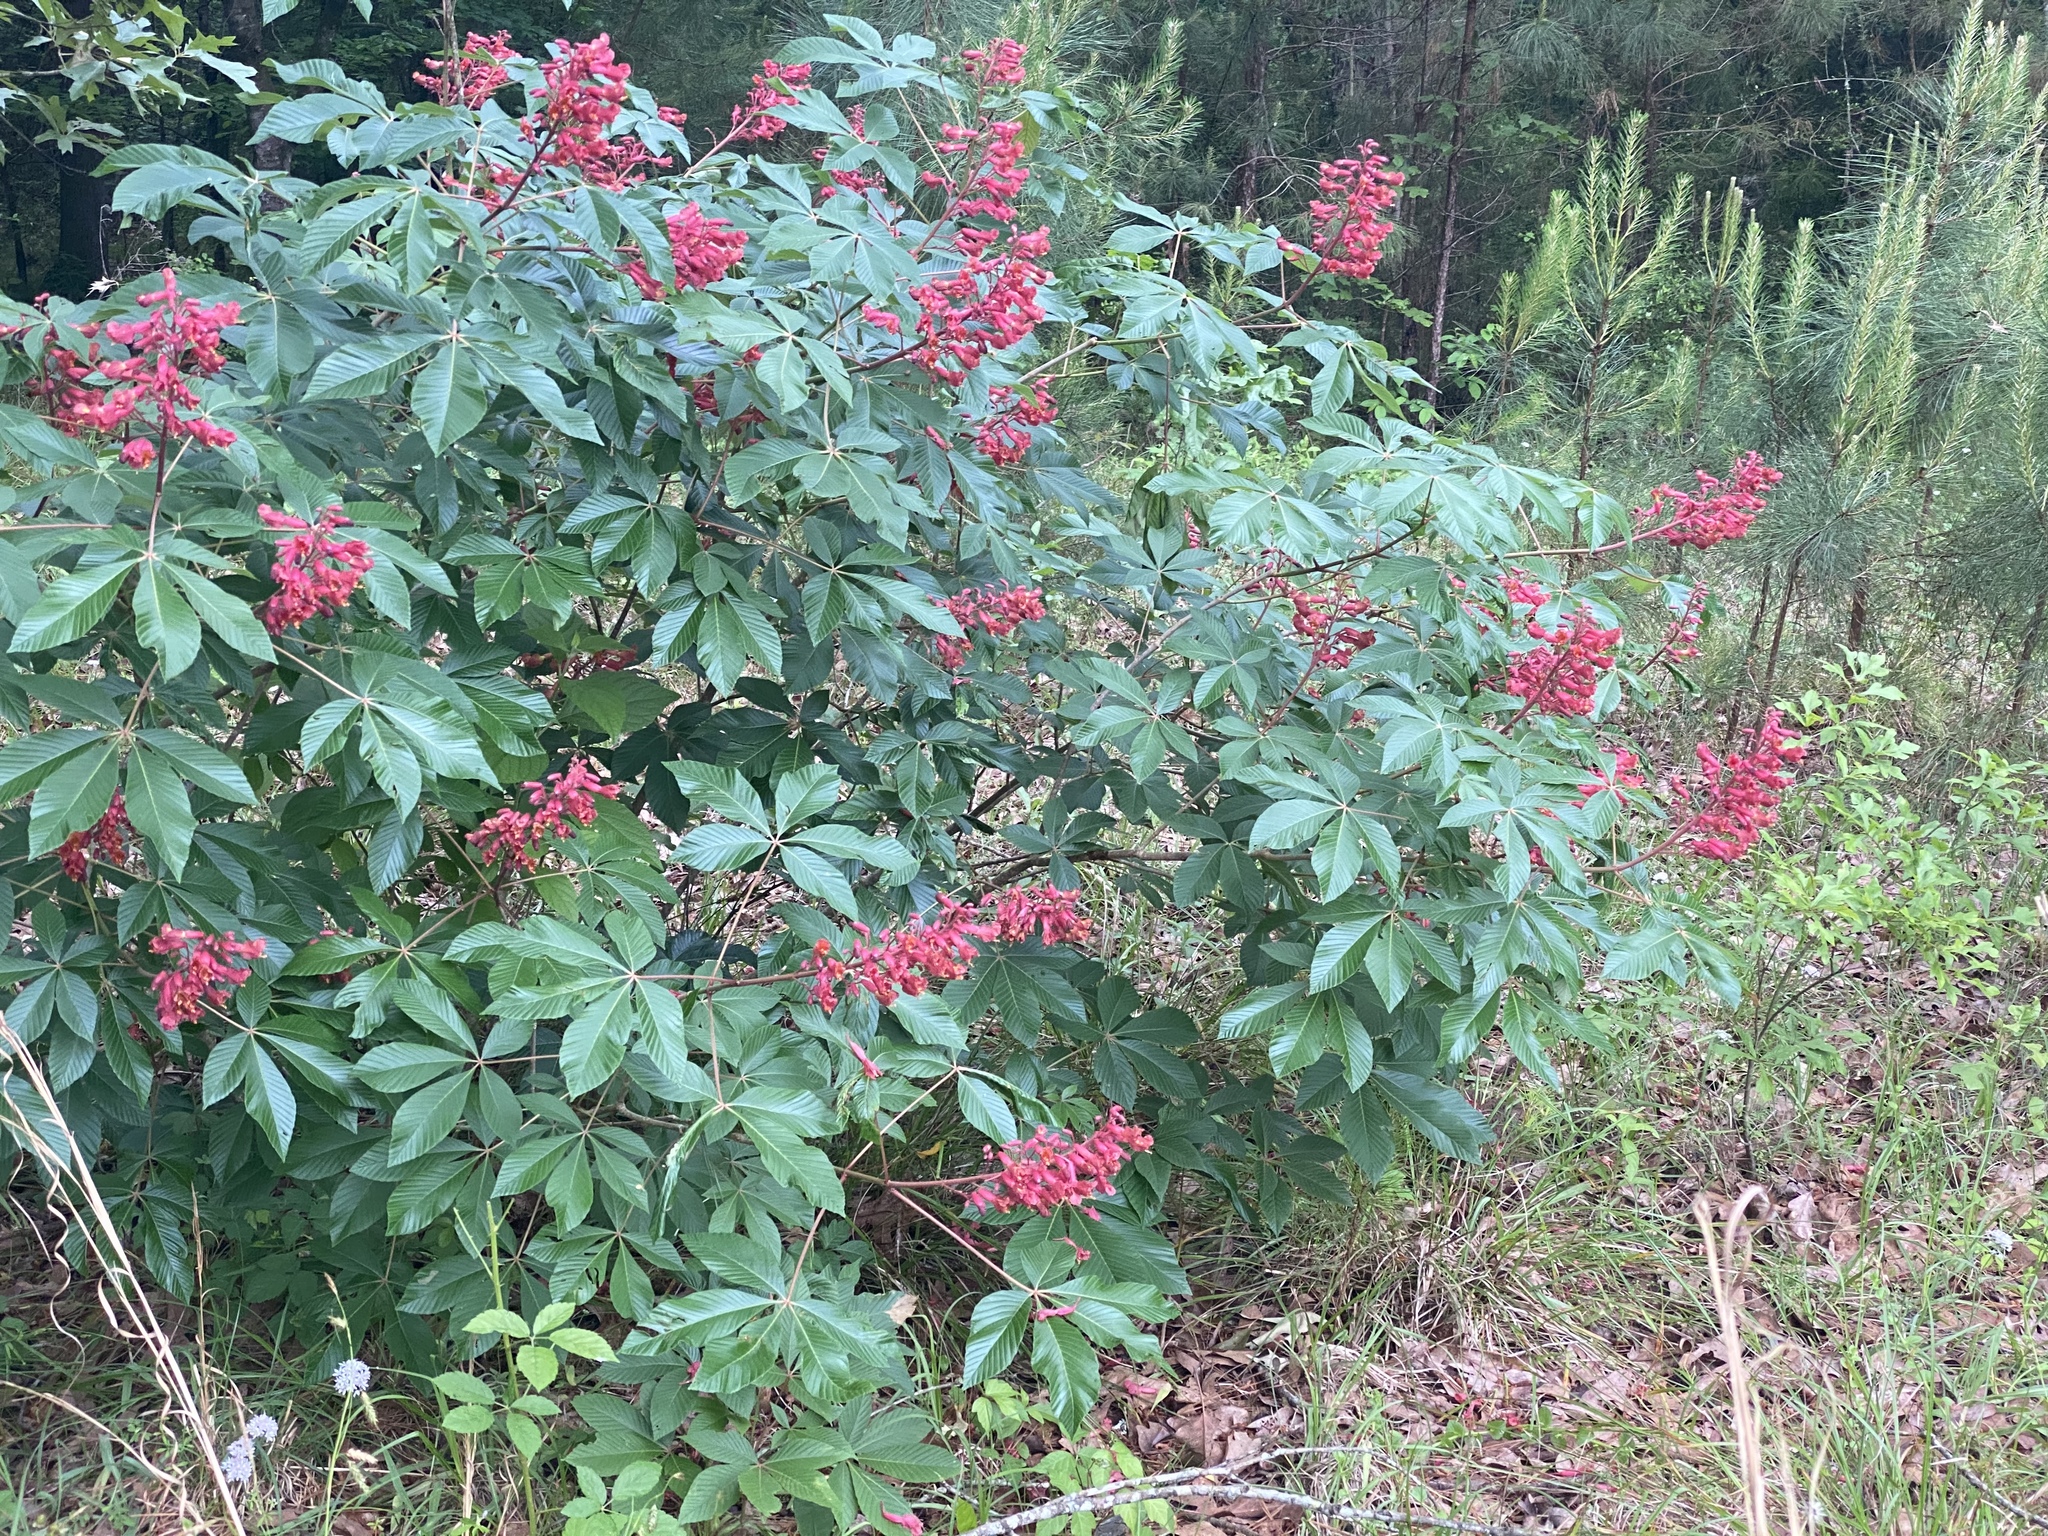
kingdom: Plantae
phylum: Tracheophyta
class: Magnoliopsida
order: Sapindales
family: Sapindaceae
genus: Aesculus
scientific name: Aesculus pavia
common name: Red buckeye
